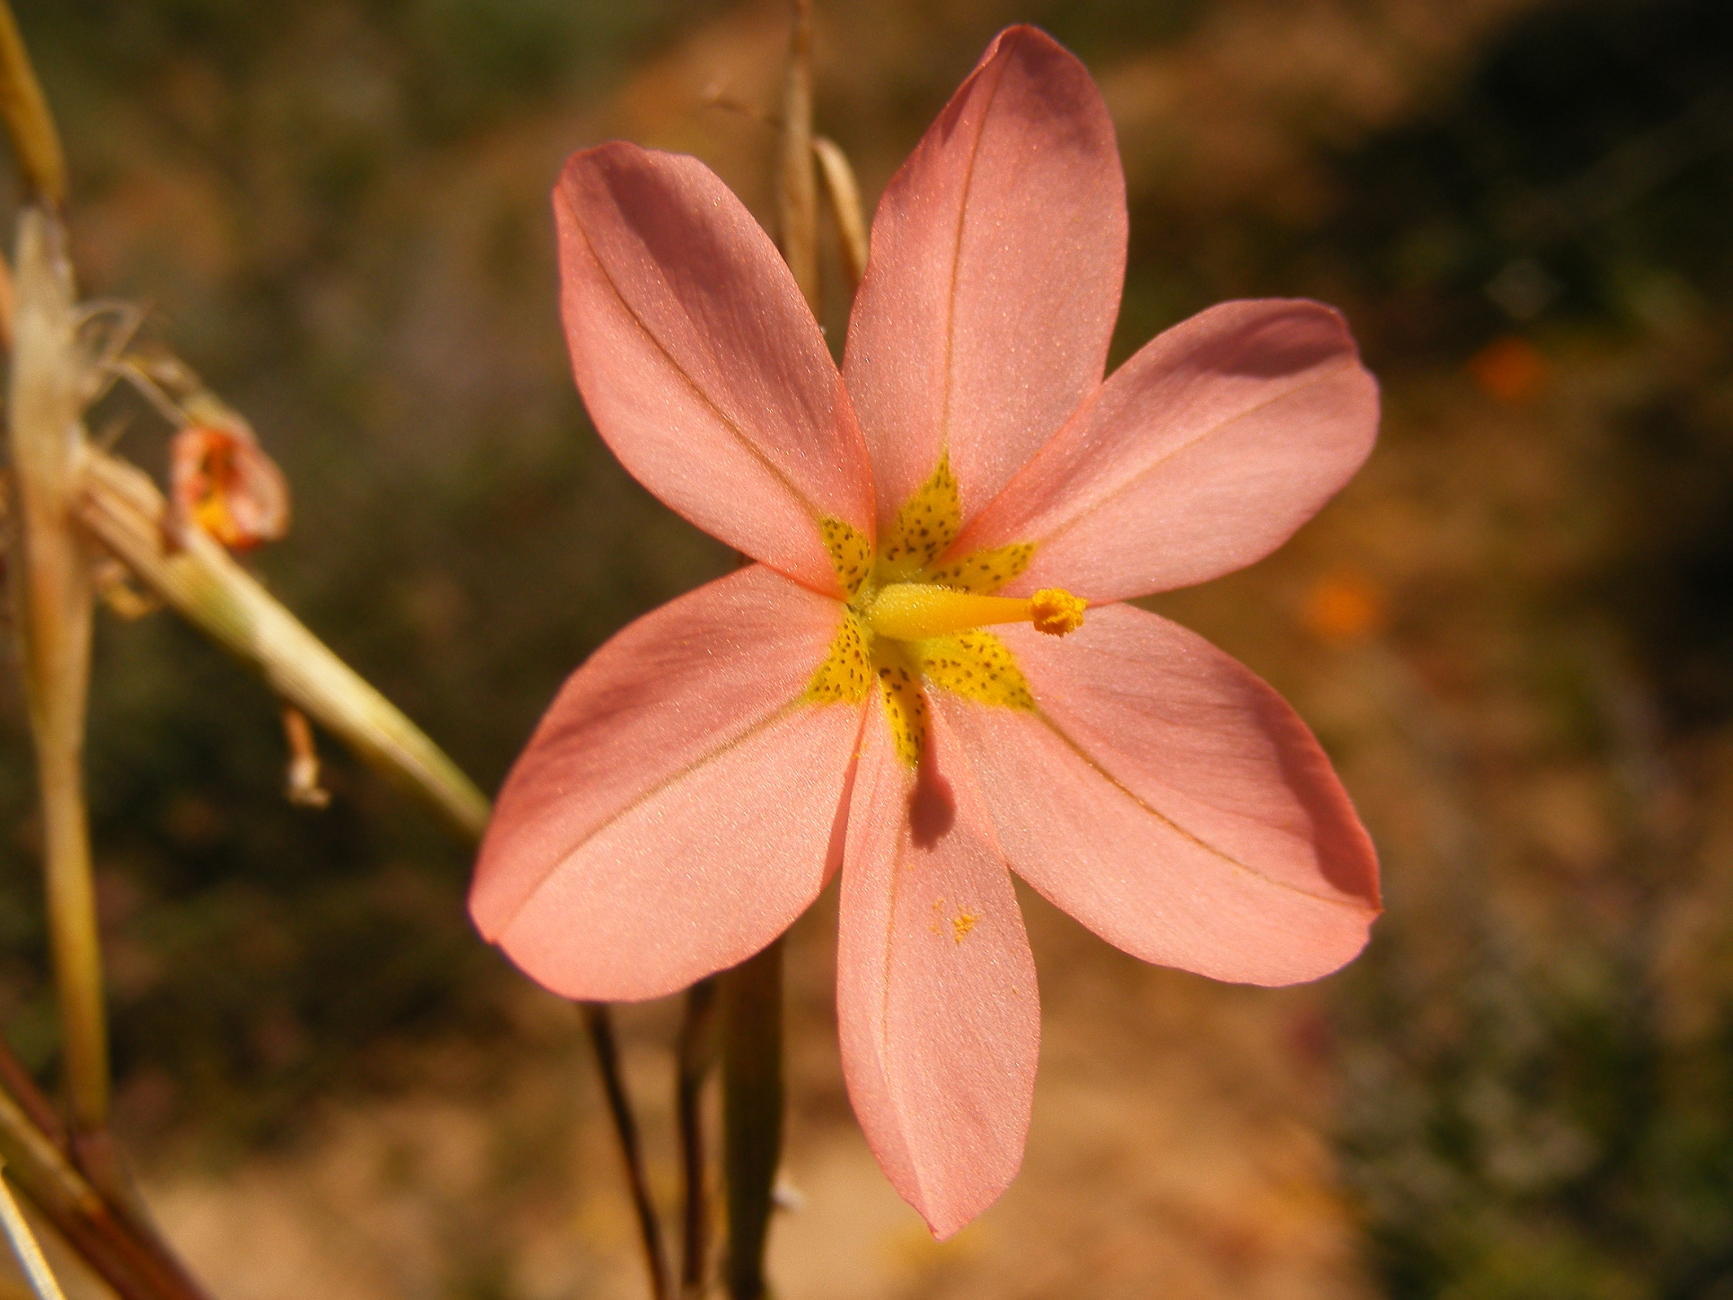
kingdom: Plantae
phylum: Tracheophyta
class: Liliopsida
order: Asparagales
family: Iridaceae
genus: Moraea
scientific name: Moraea miniata
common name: Two-leaf cape-tulip
